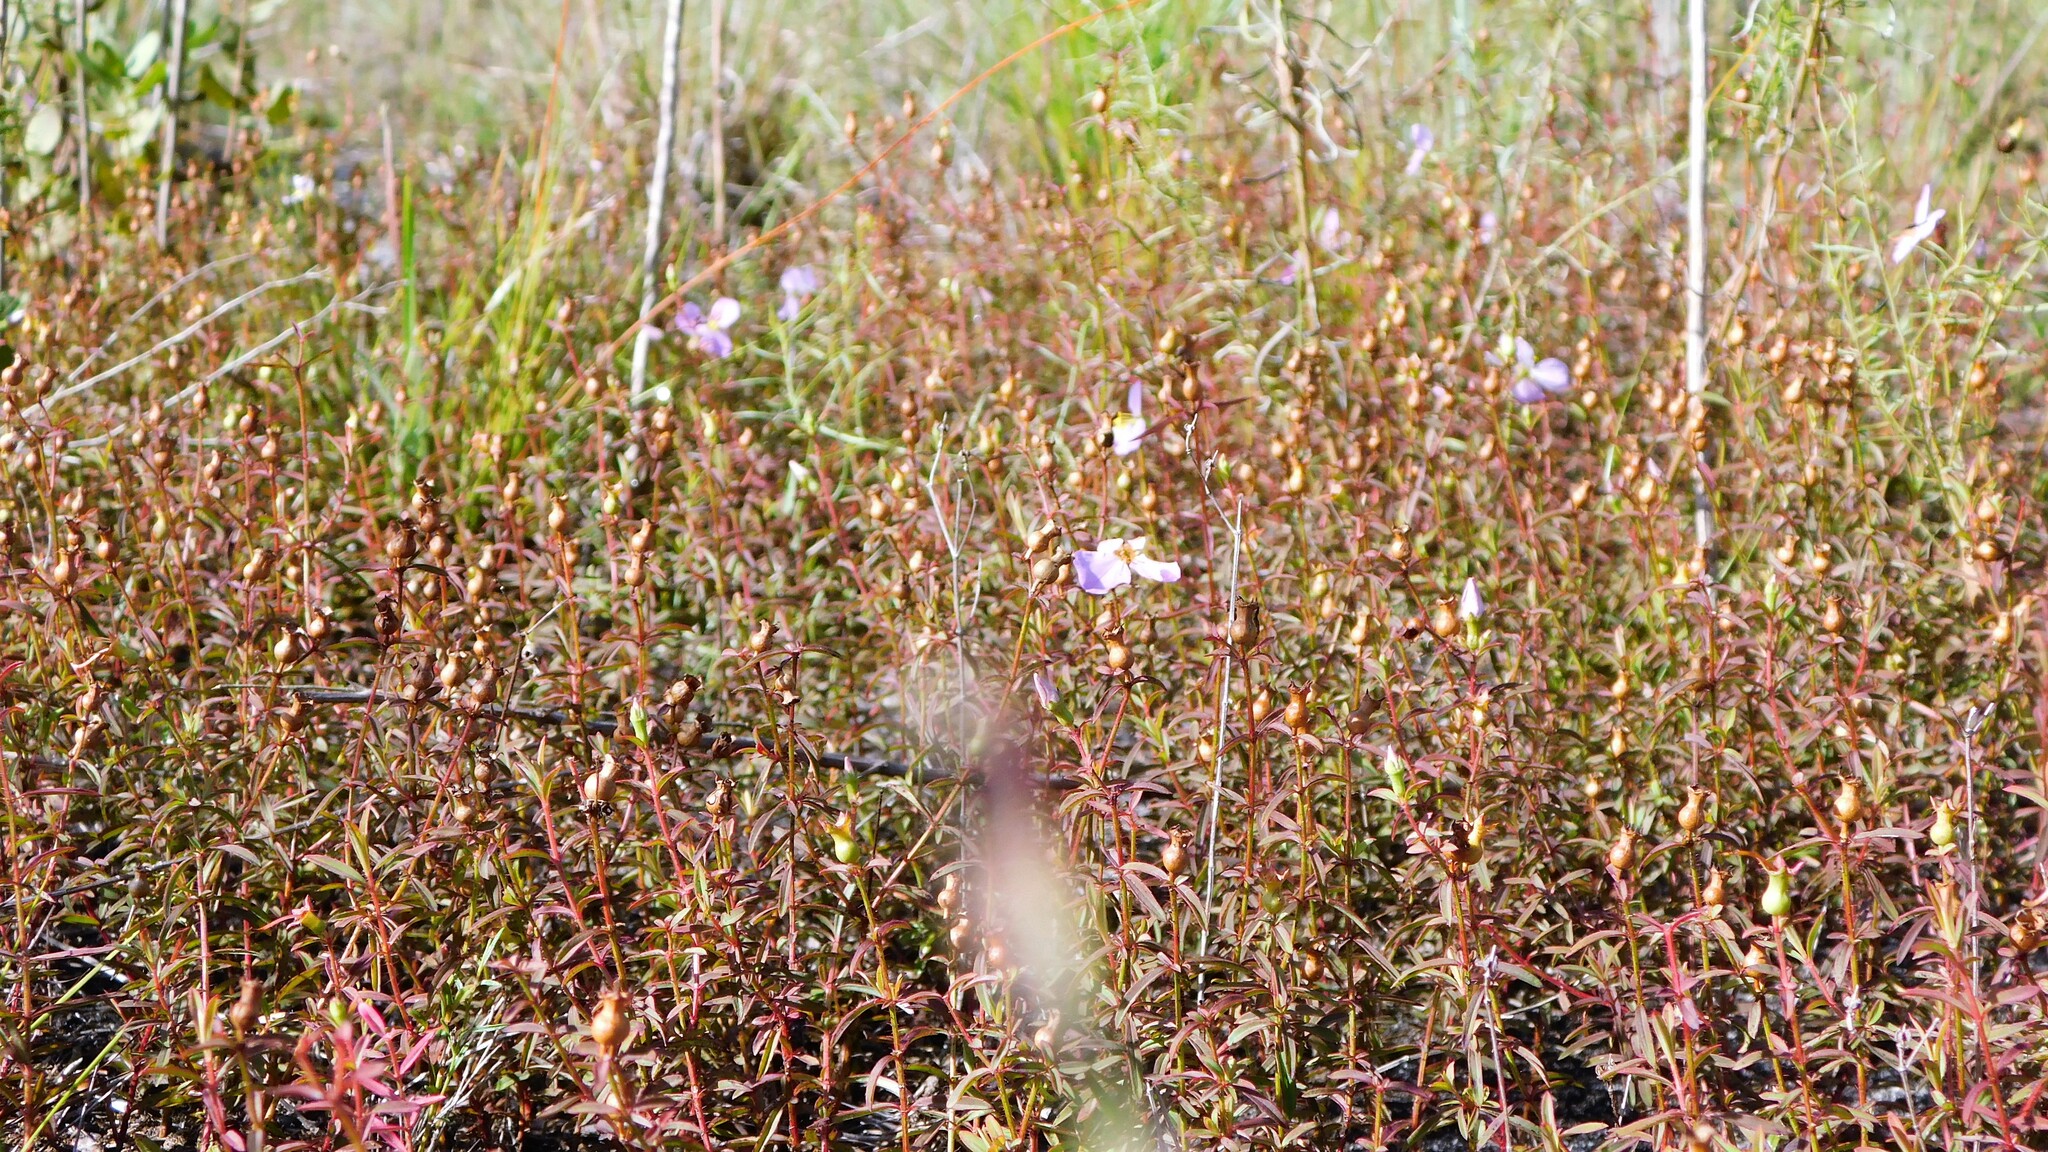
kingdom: Plantae
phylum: Tracheophyta
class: Magnoliopsida
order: Myrtales
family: Melastomataceae
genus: Rhexia
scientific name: Rhexia mariana
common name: Dull meadow-pitcher
